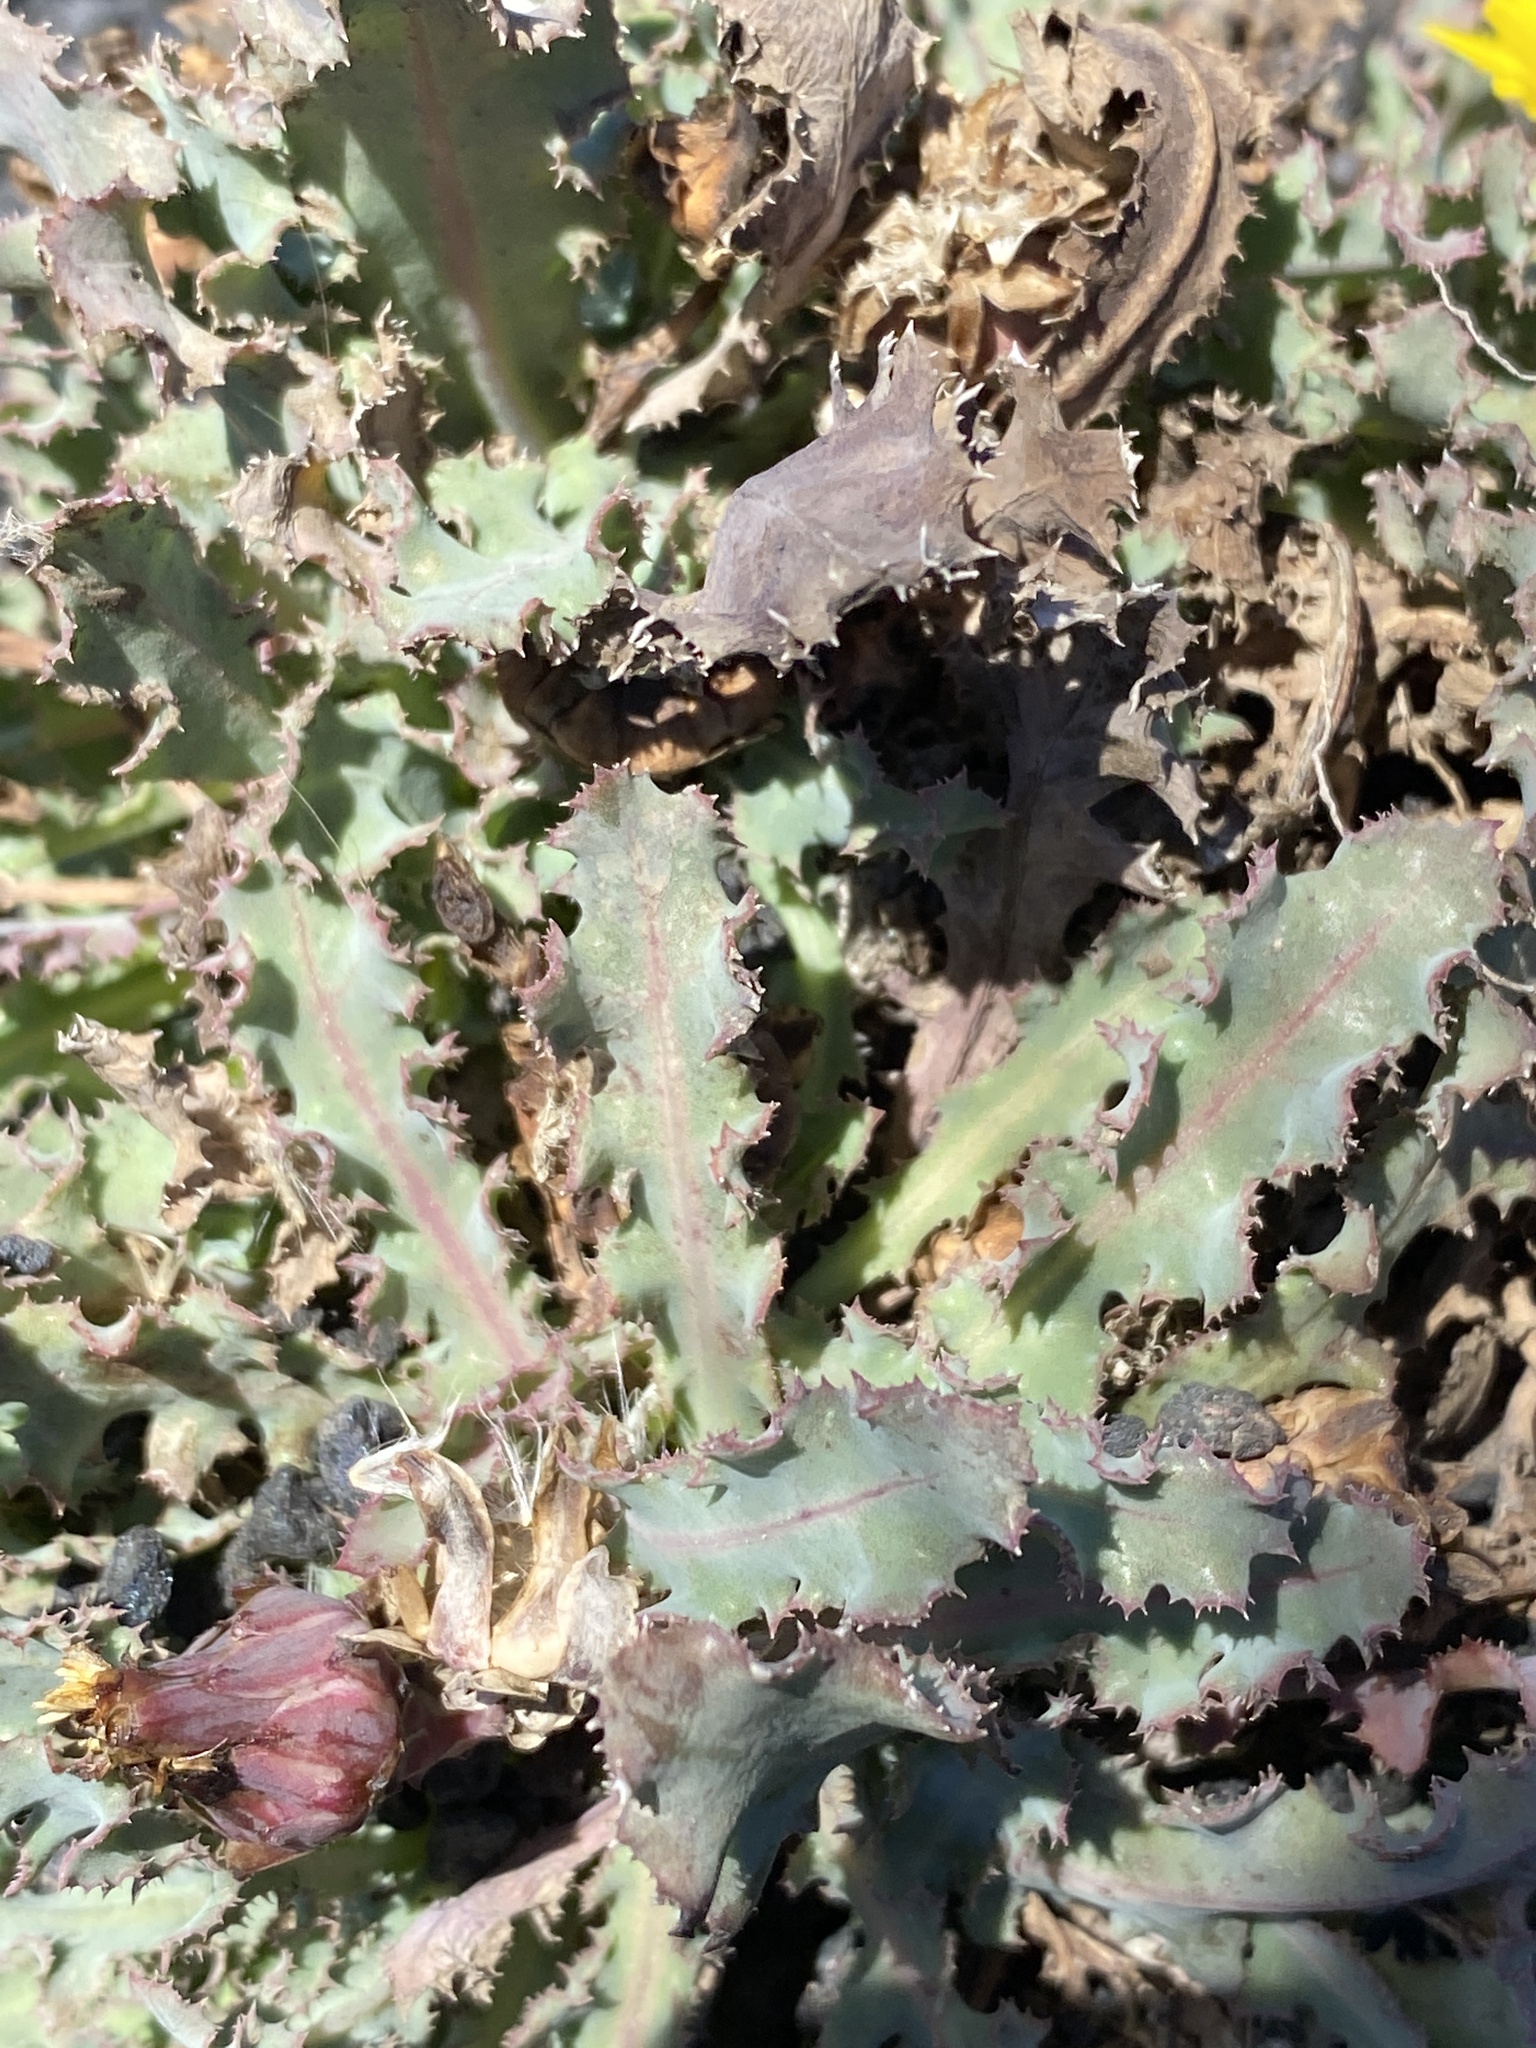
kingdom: Plantae
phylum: Tracheophyta
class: Magnoliopsida
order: Asterales
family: Asteraceae
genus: Reichardia
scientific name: Reichardia ligulata
